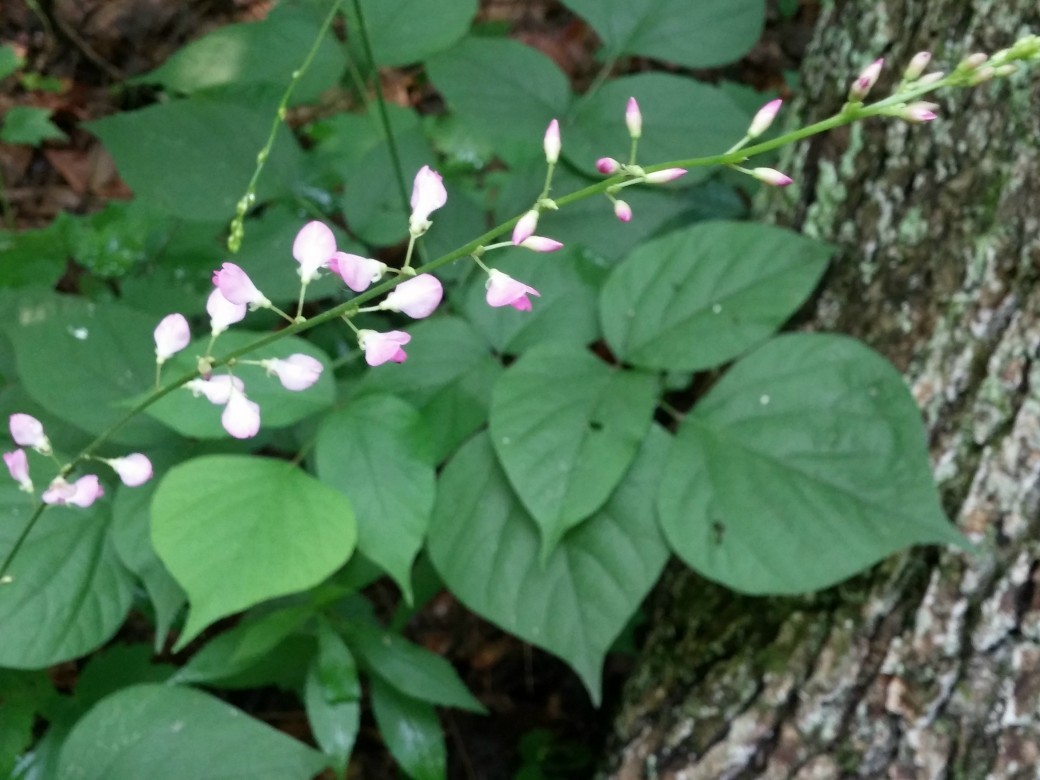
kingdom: Plantae
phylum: Tracheophyta
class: Magnoliopsida
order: Fabales
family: Fabaceae
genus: Hylodesmum
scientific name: Hylodesmum glutinosum
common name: Clustered-leaved tick-trefoil
